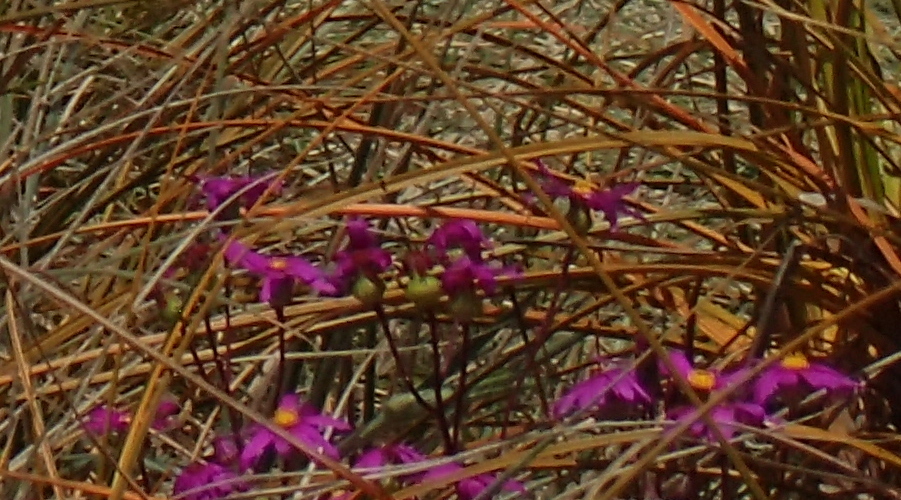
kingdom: Plantae
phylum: Tracheophyta
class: Magnoliopsida
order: Asterales
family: Asteraceae
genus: Senecio
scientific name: Senecio elegans
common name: Purple groundsel
